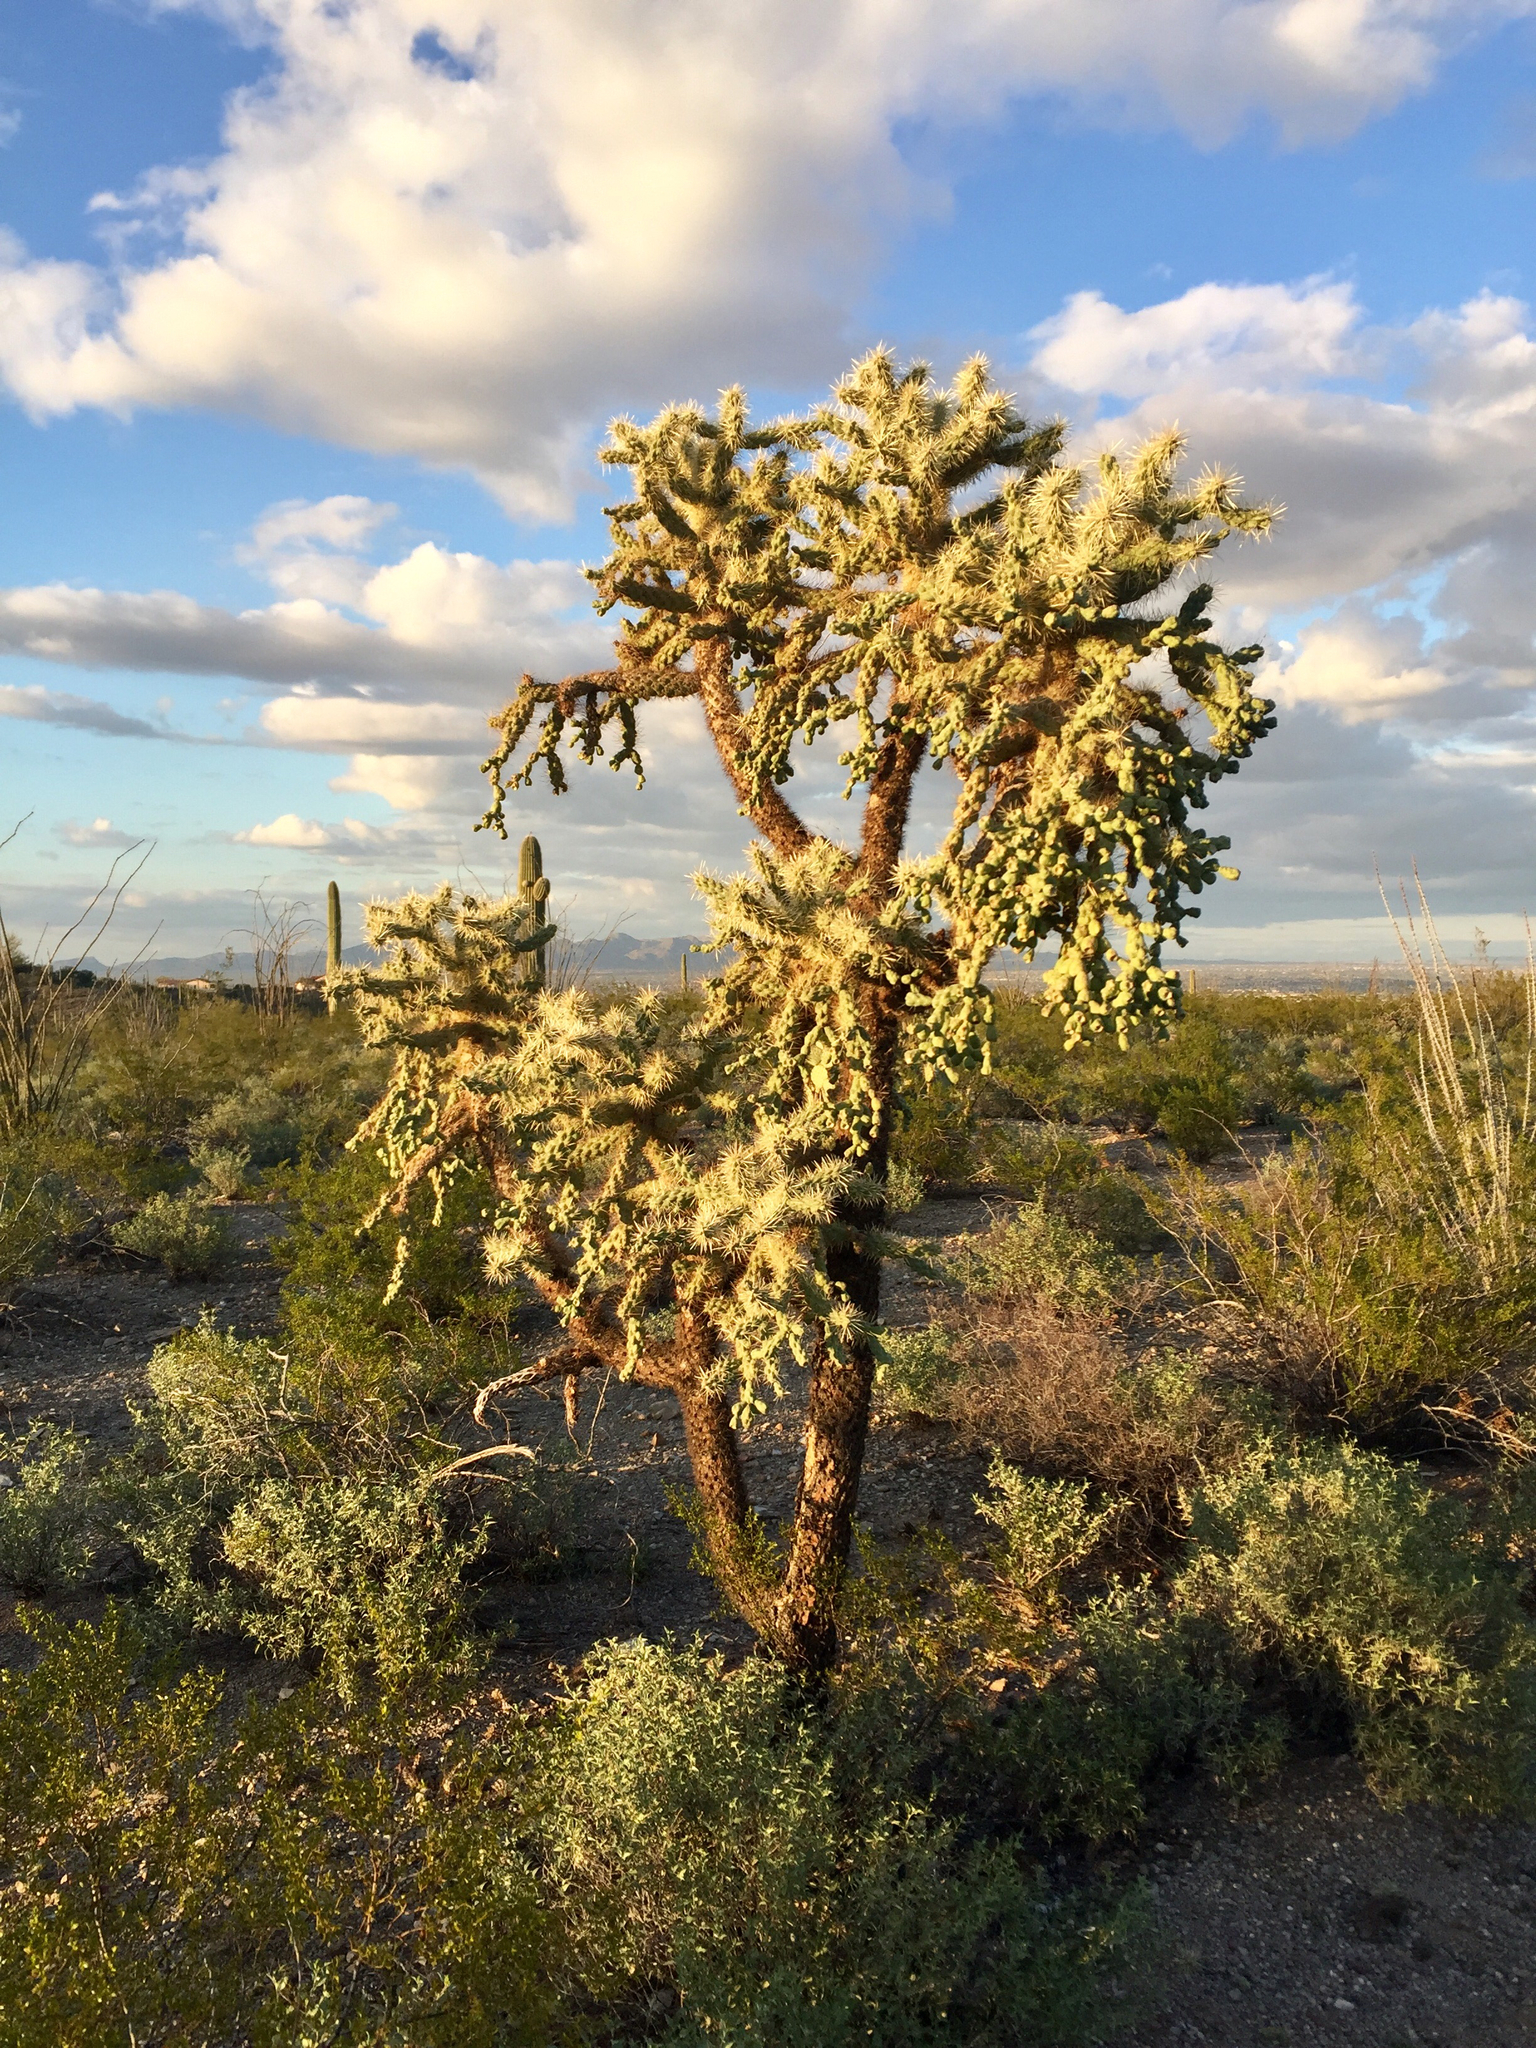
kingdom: Plantae
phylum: Tracheophyta
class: Magnoliopsida
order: Caryophyllales
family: Cactaceae
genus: Cylindropuntia
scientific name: Cylindropuntia fulgida
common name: Jumping cholla
